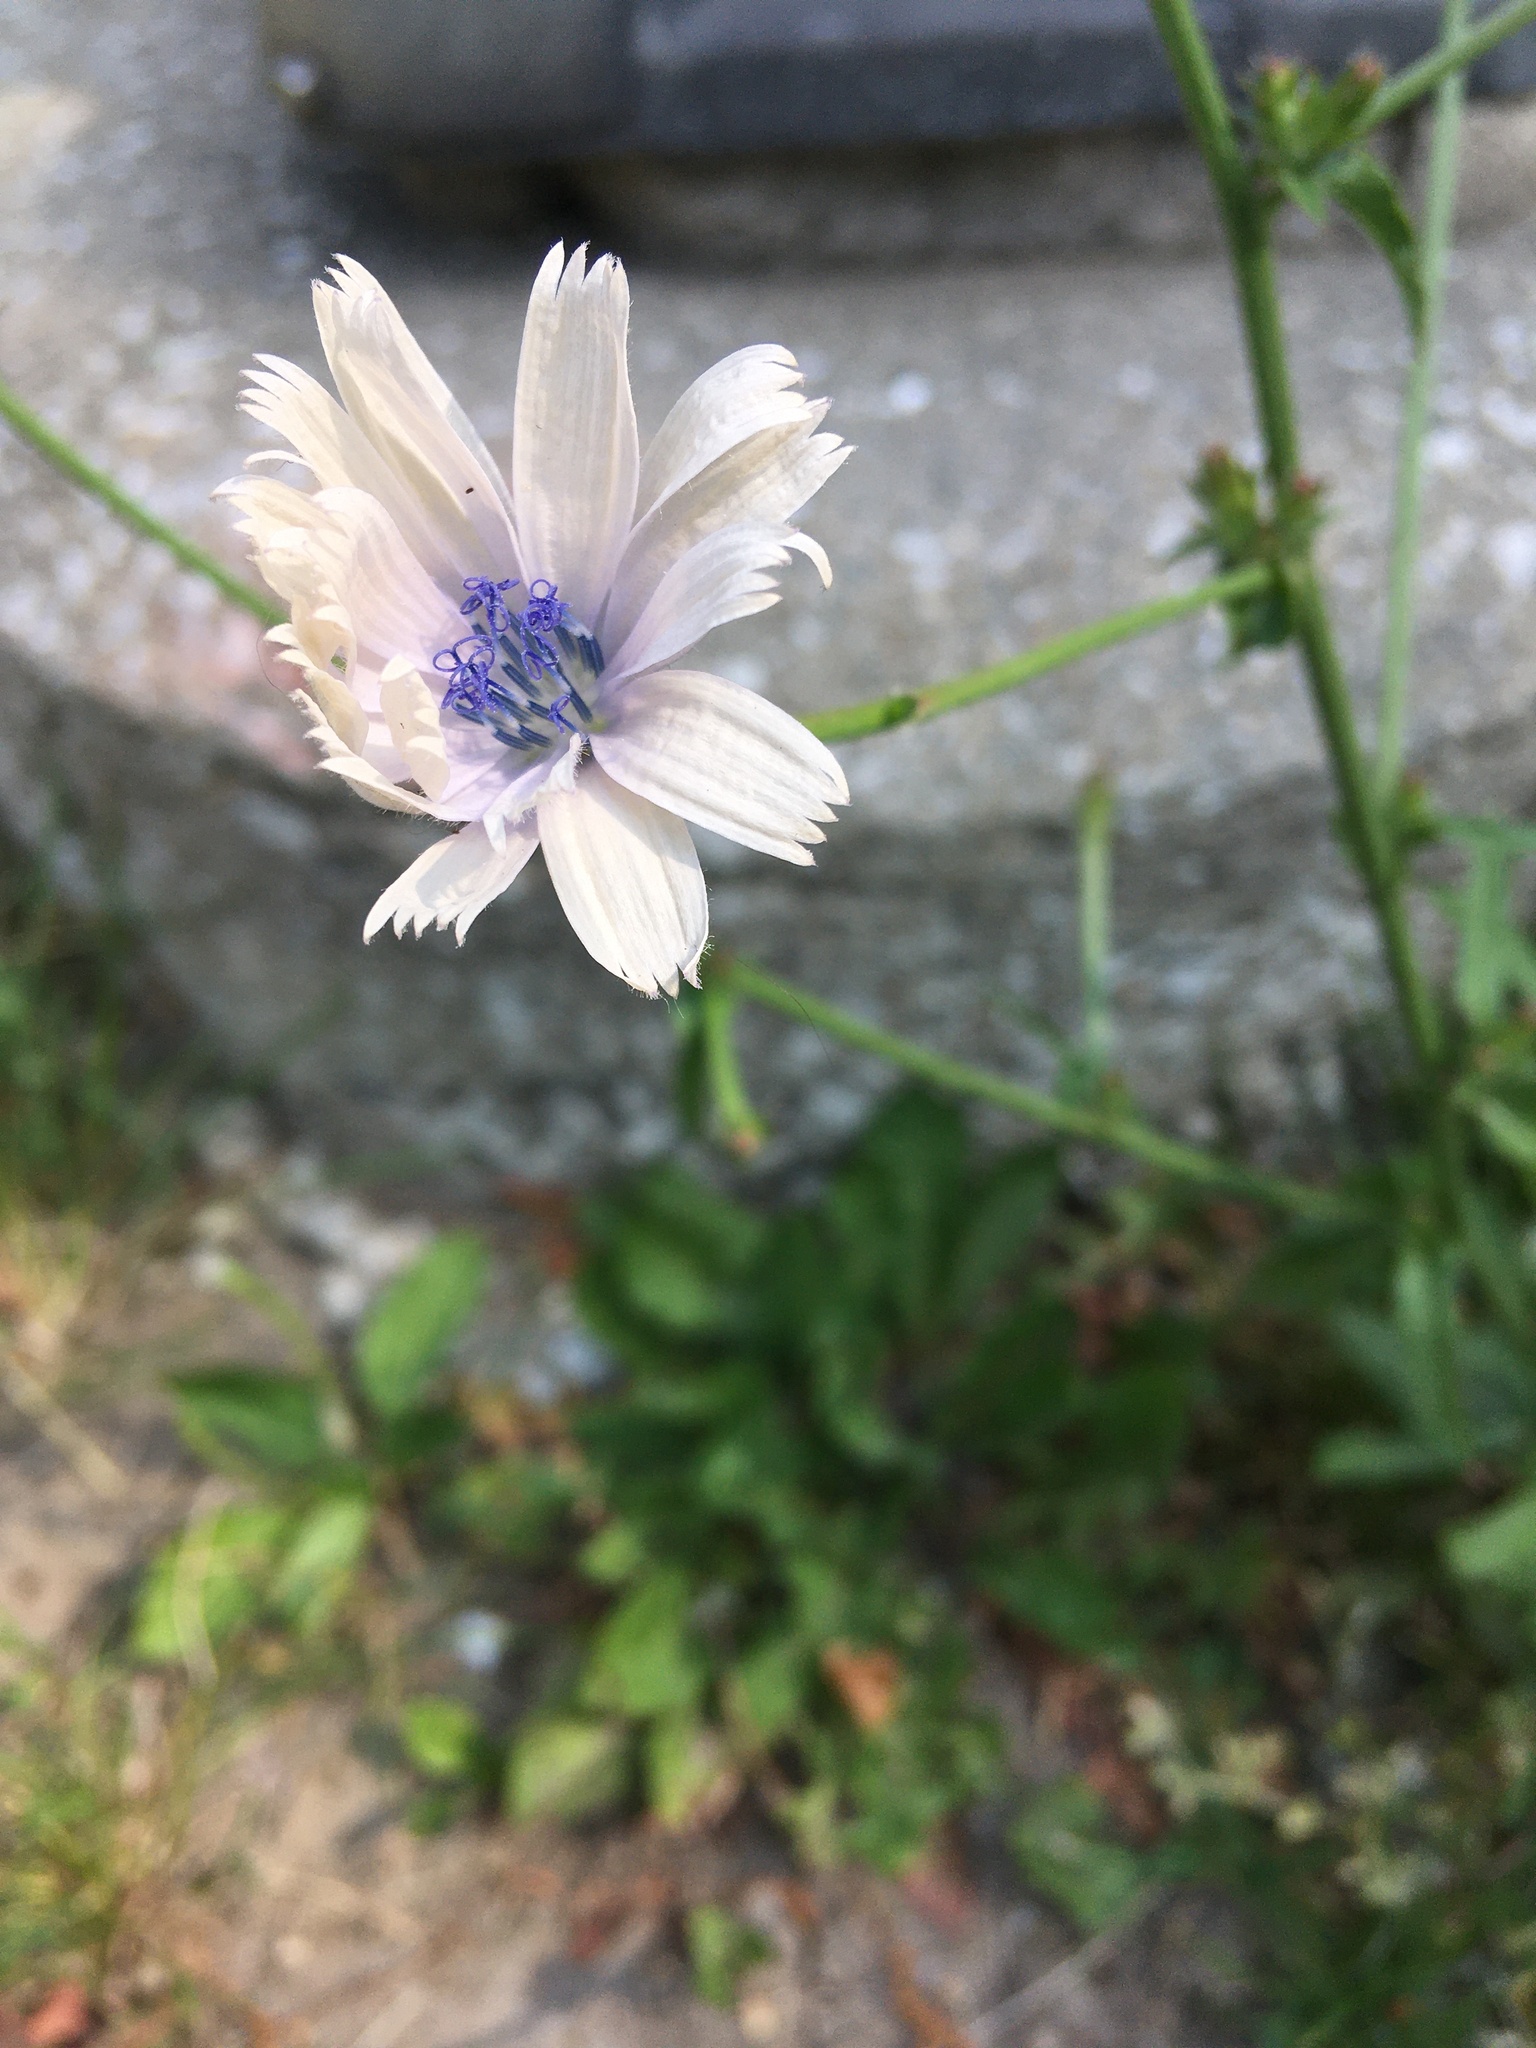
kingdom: Plantae
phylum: Tracheophyta
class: Magnoliopsida
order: Asterales
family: Asteraceae
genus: Cichorium
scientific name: Cichorium intybus
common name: Chicory
